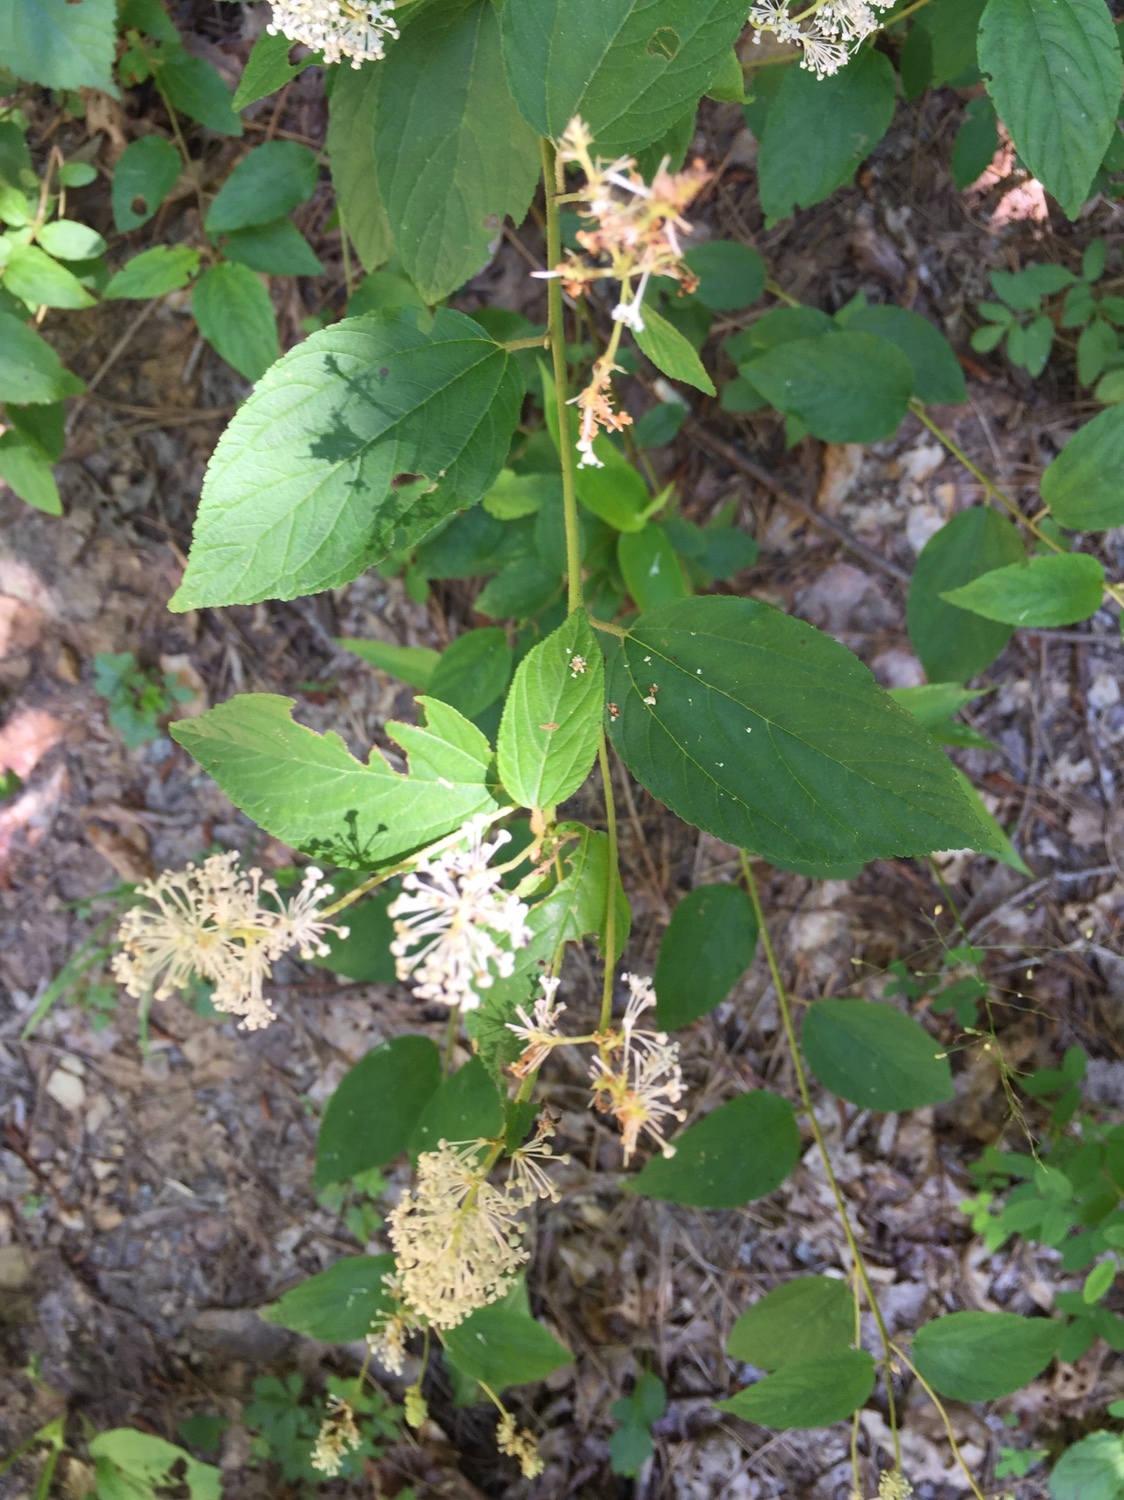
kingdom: Plantae
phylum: Tracheophyta
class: Magnoliopsida
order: Rosales
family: Rhamnaceae
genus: Ceanothus
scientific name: Ceanothus americanus
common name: Redroot
